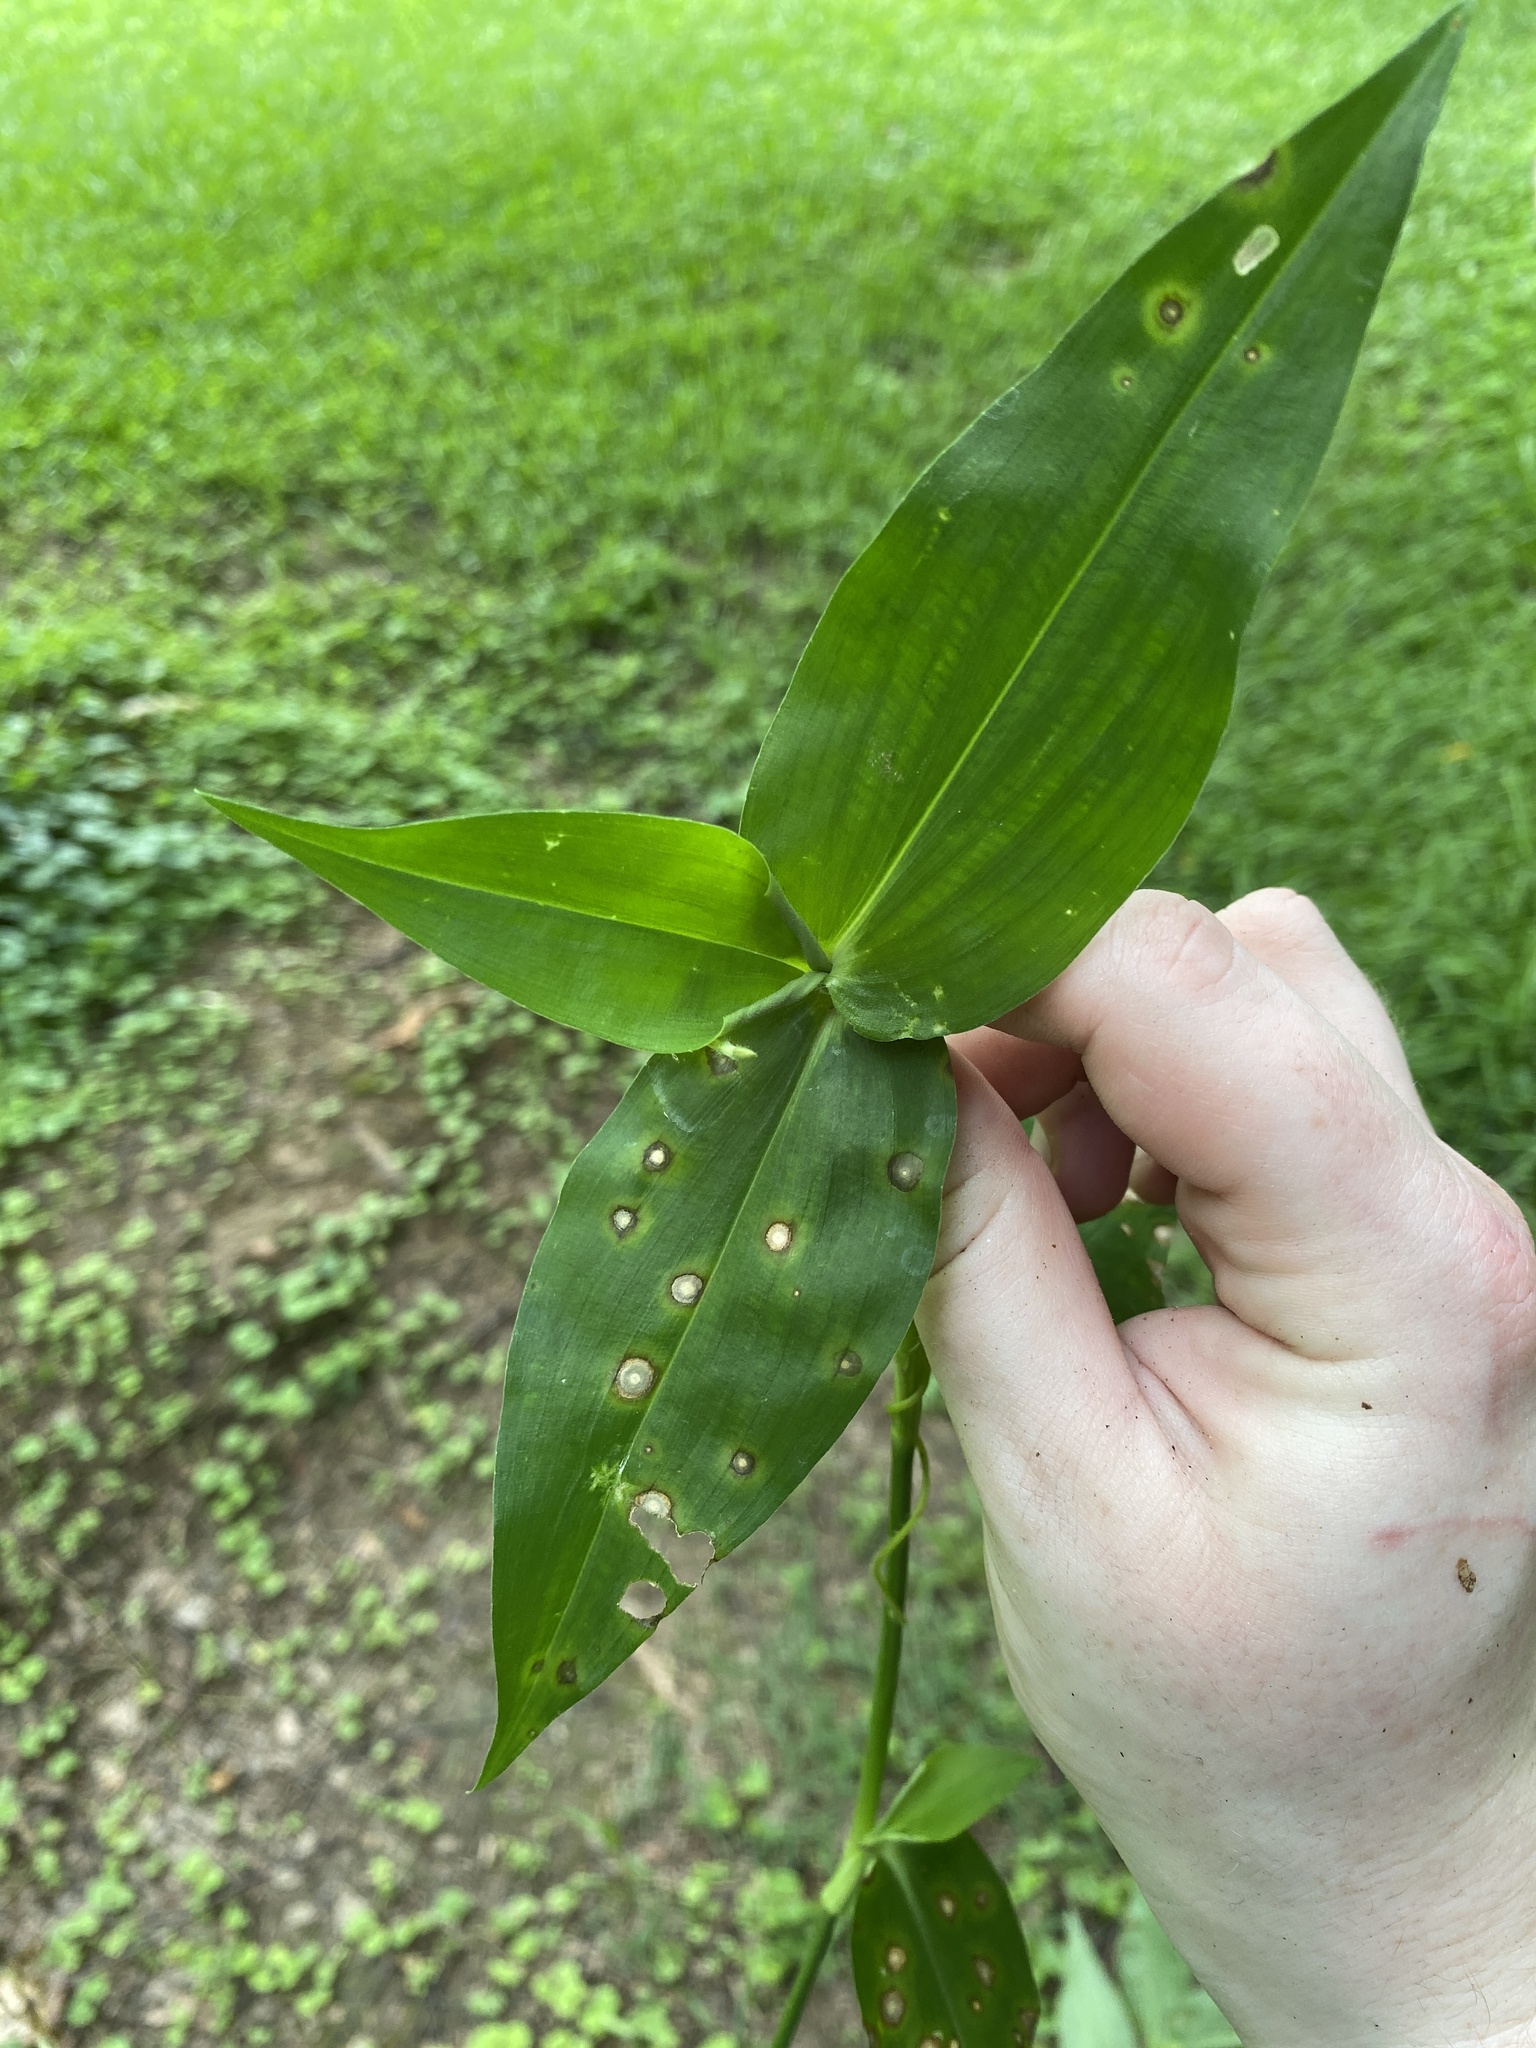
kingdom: Plantae
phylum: Tracheophyta
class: Liliopsida
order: Commelinales
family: Commelinaceae
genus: Commelina
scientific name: Commelina communis
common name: Asiatic dayflower
